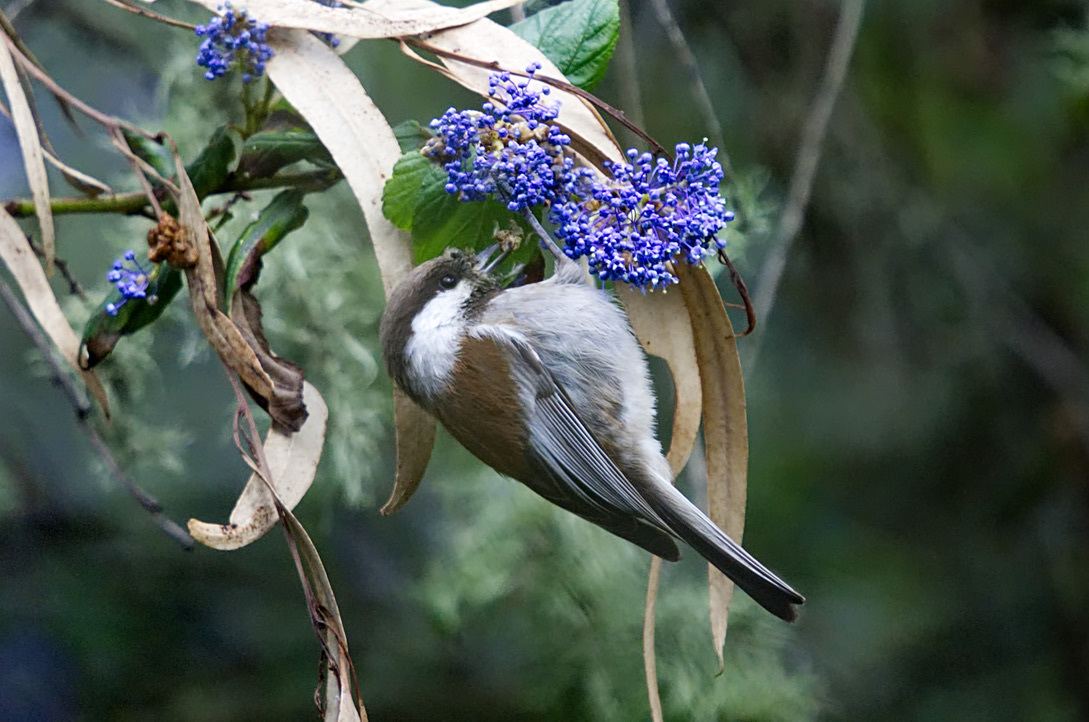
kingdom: Animalia
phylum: Chordata
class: Aves
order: Passeriformes
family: Paridae
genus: Poecile
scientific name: Poecile rufescens
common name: Chestnut-backed chickadee
